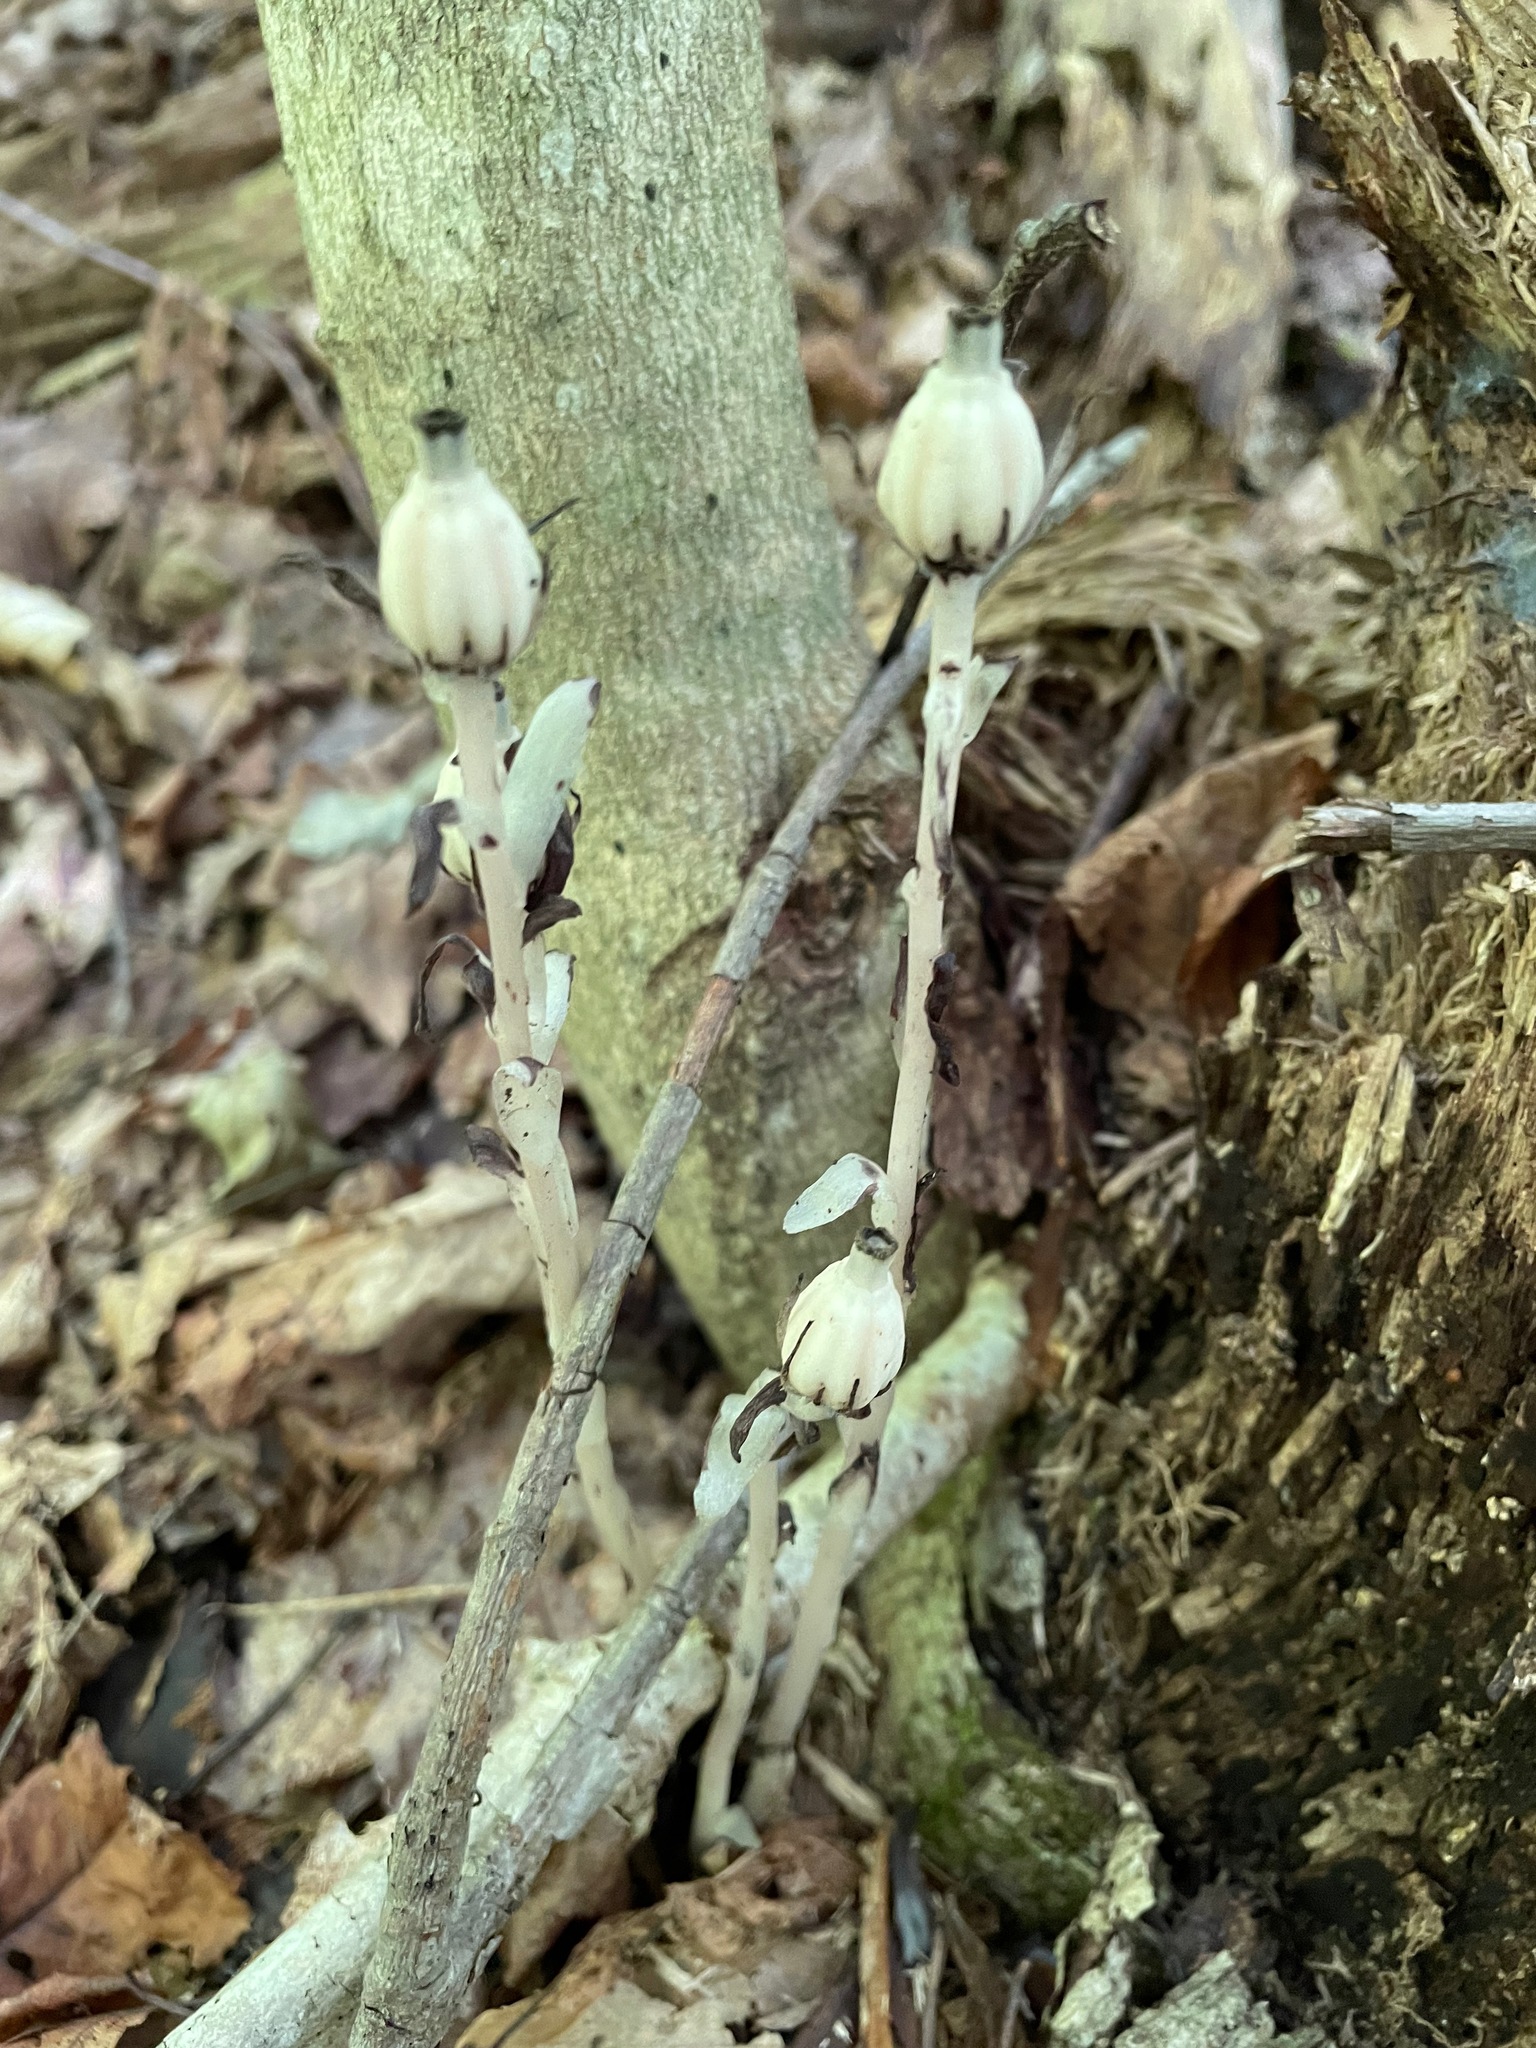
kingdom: Plantae
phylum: Tracheophyta
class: Magnoliopsida
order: Ericales
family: Ericaceae
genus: Monotropa
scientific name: Monotropa uniflora
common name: Convulsion root
